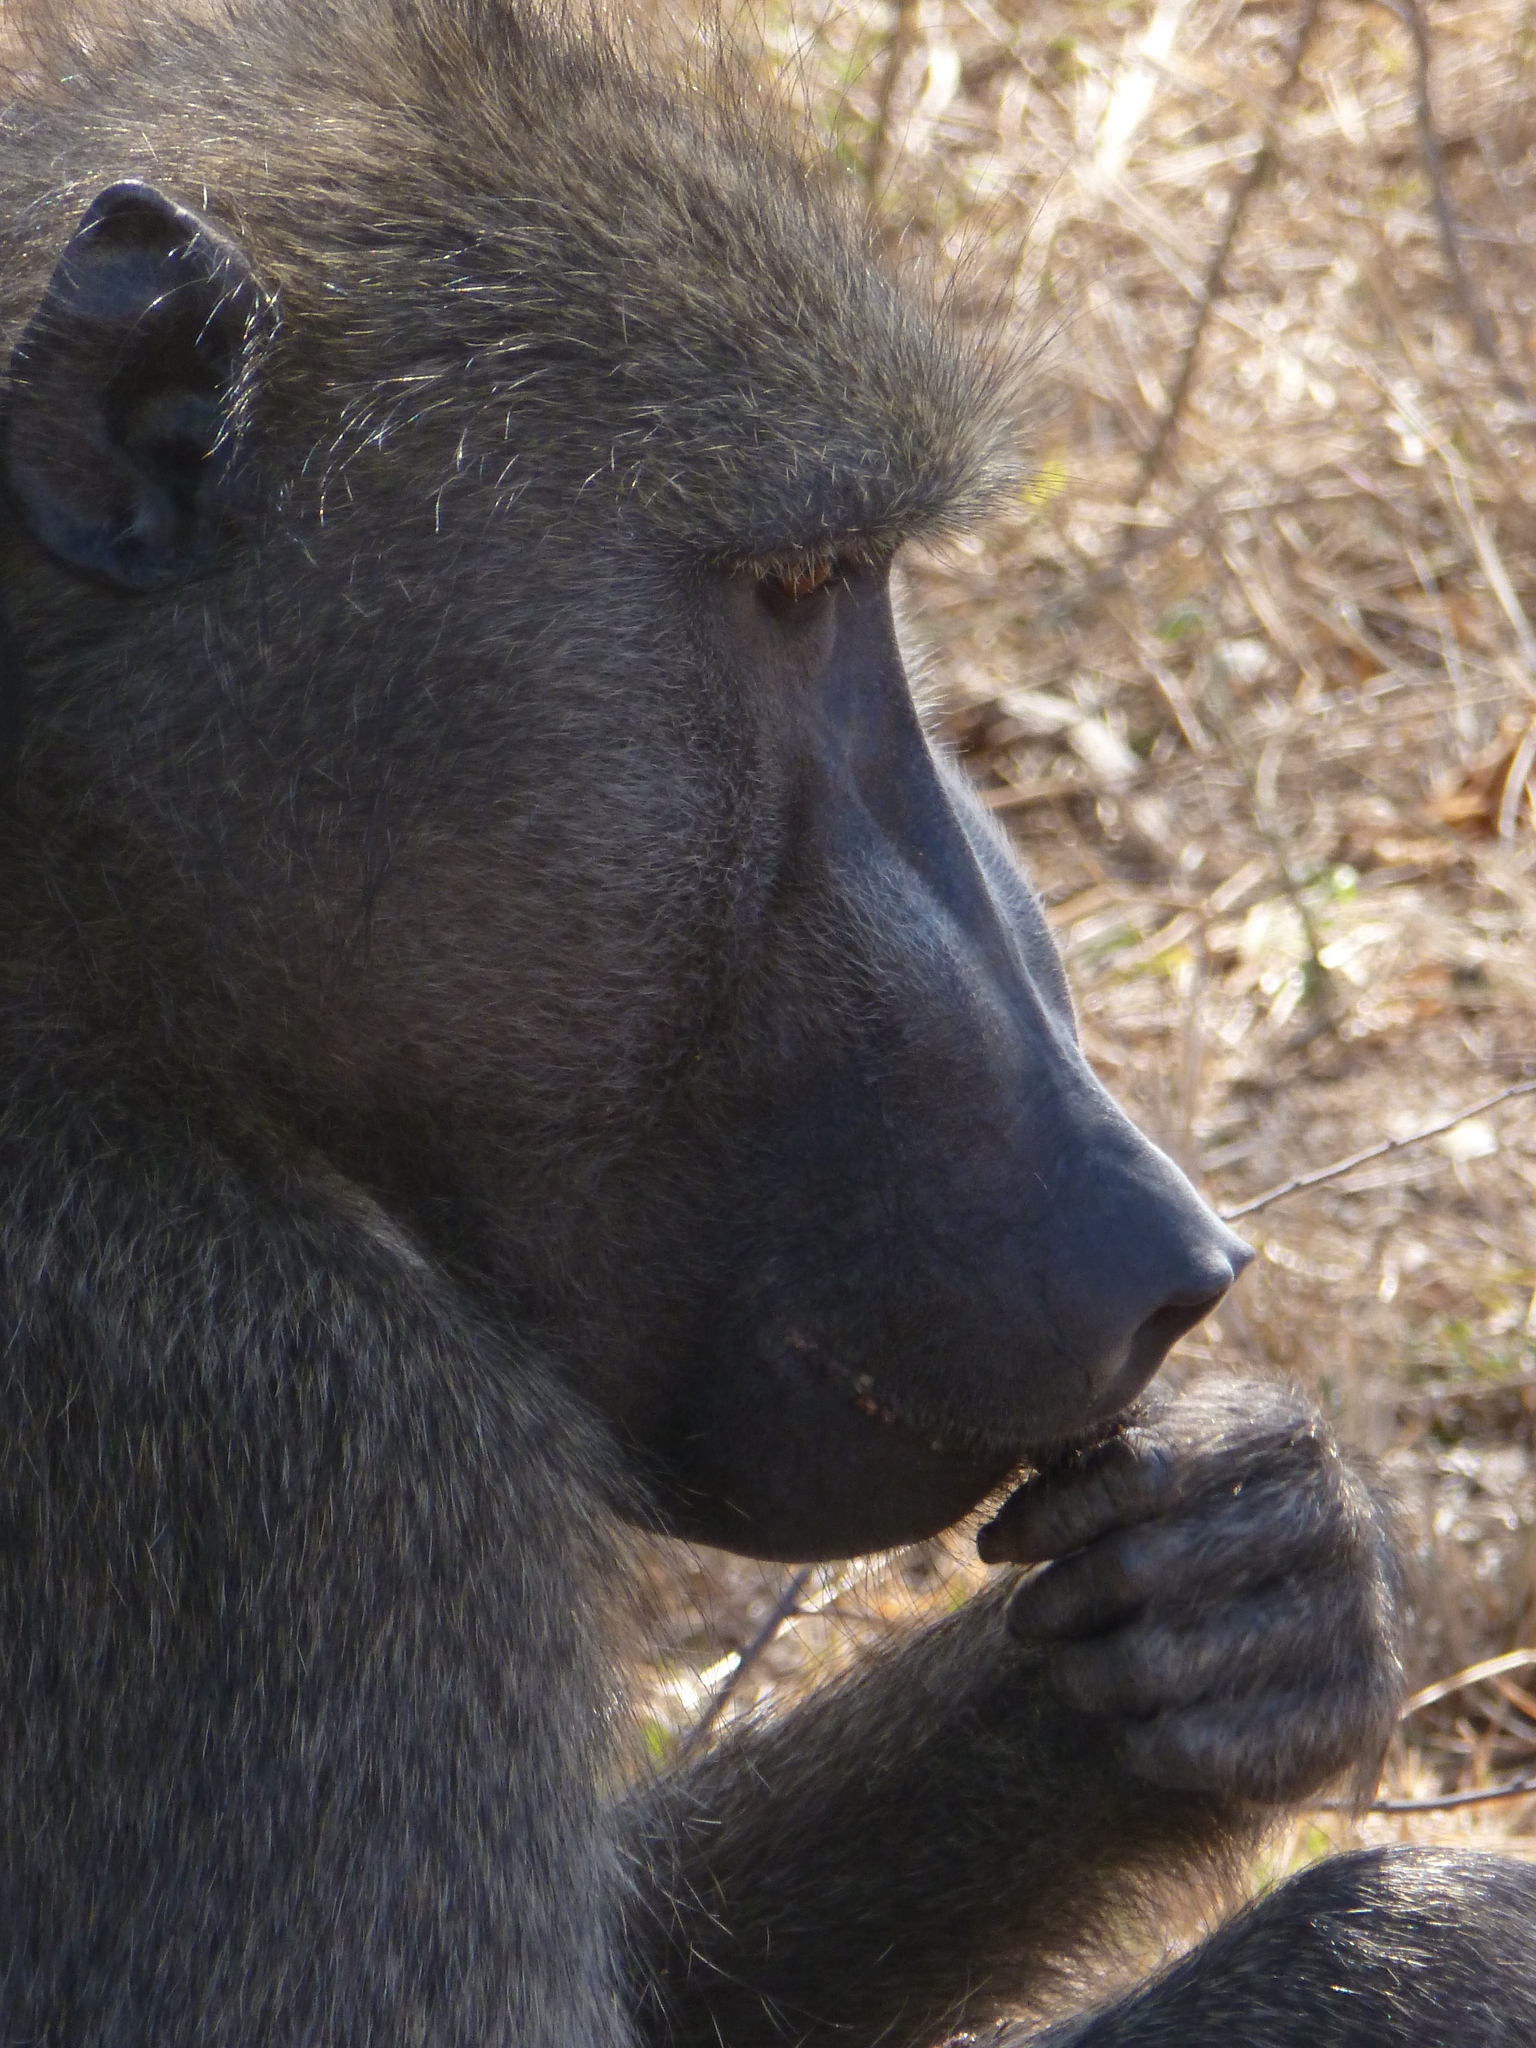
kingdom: Animalia
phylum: Chordata
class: Mammalia
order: Primates
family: Cercopithecidae
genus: Papio
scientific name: Papio ursinus
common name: Chacma baboon
